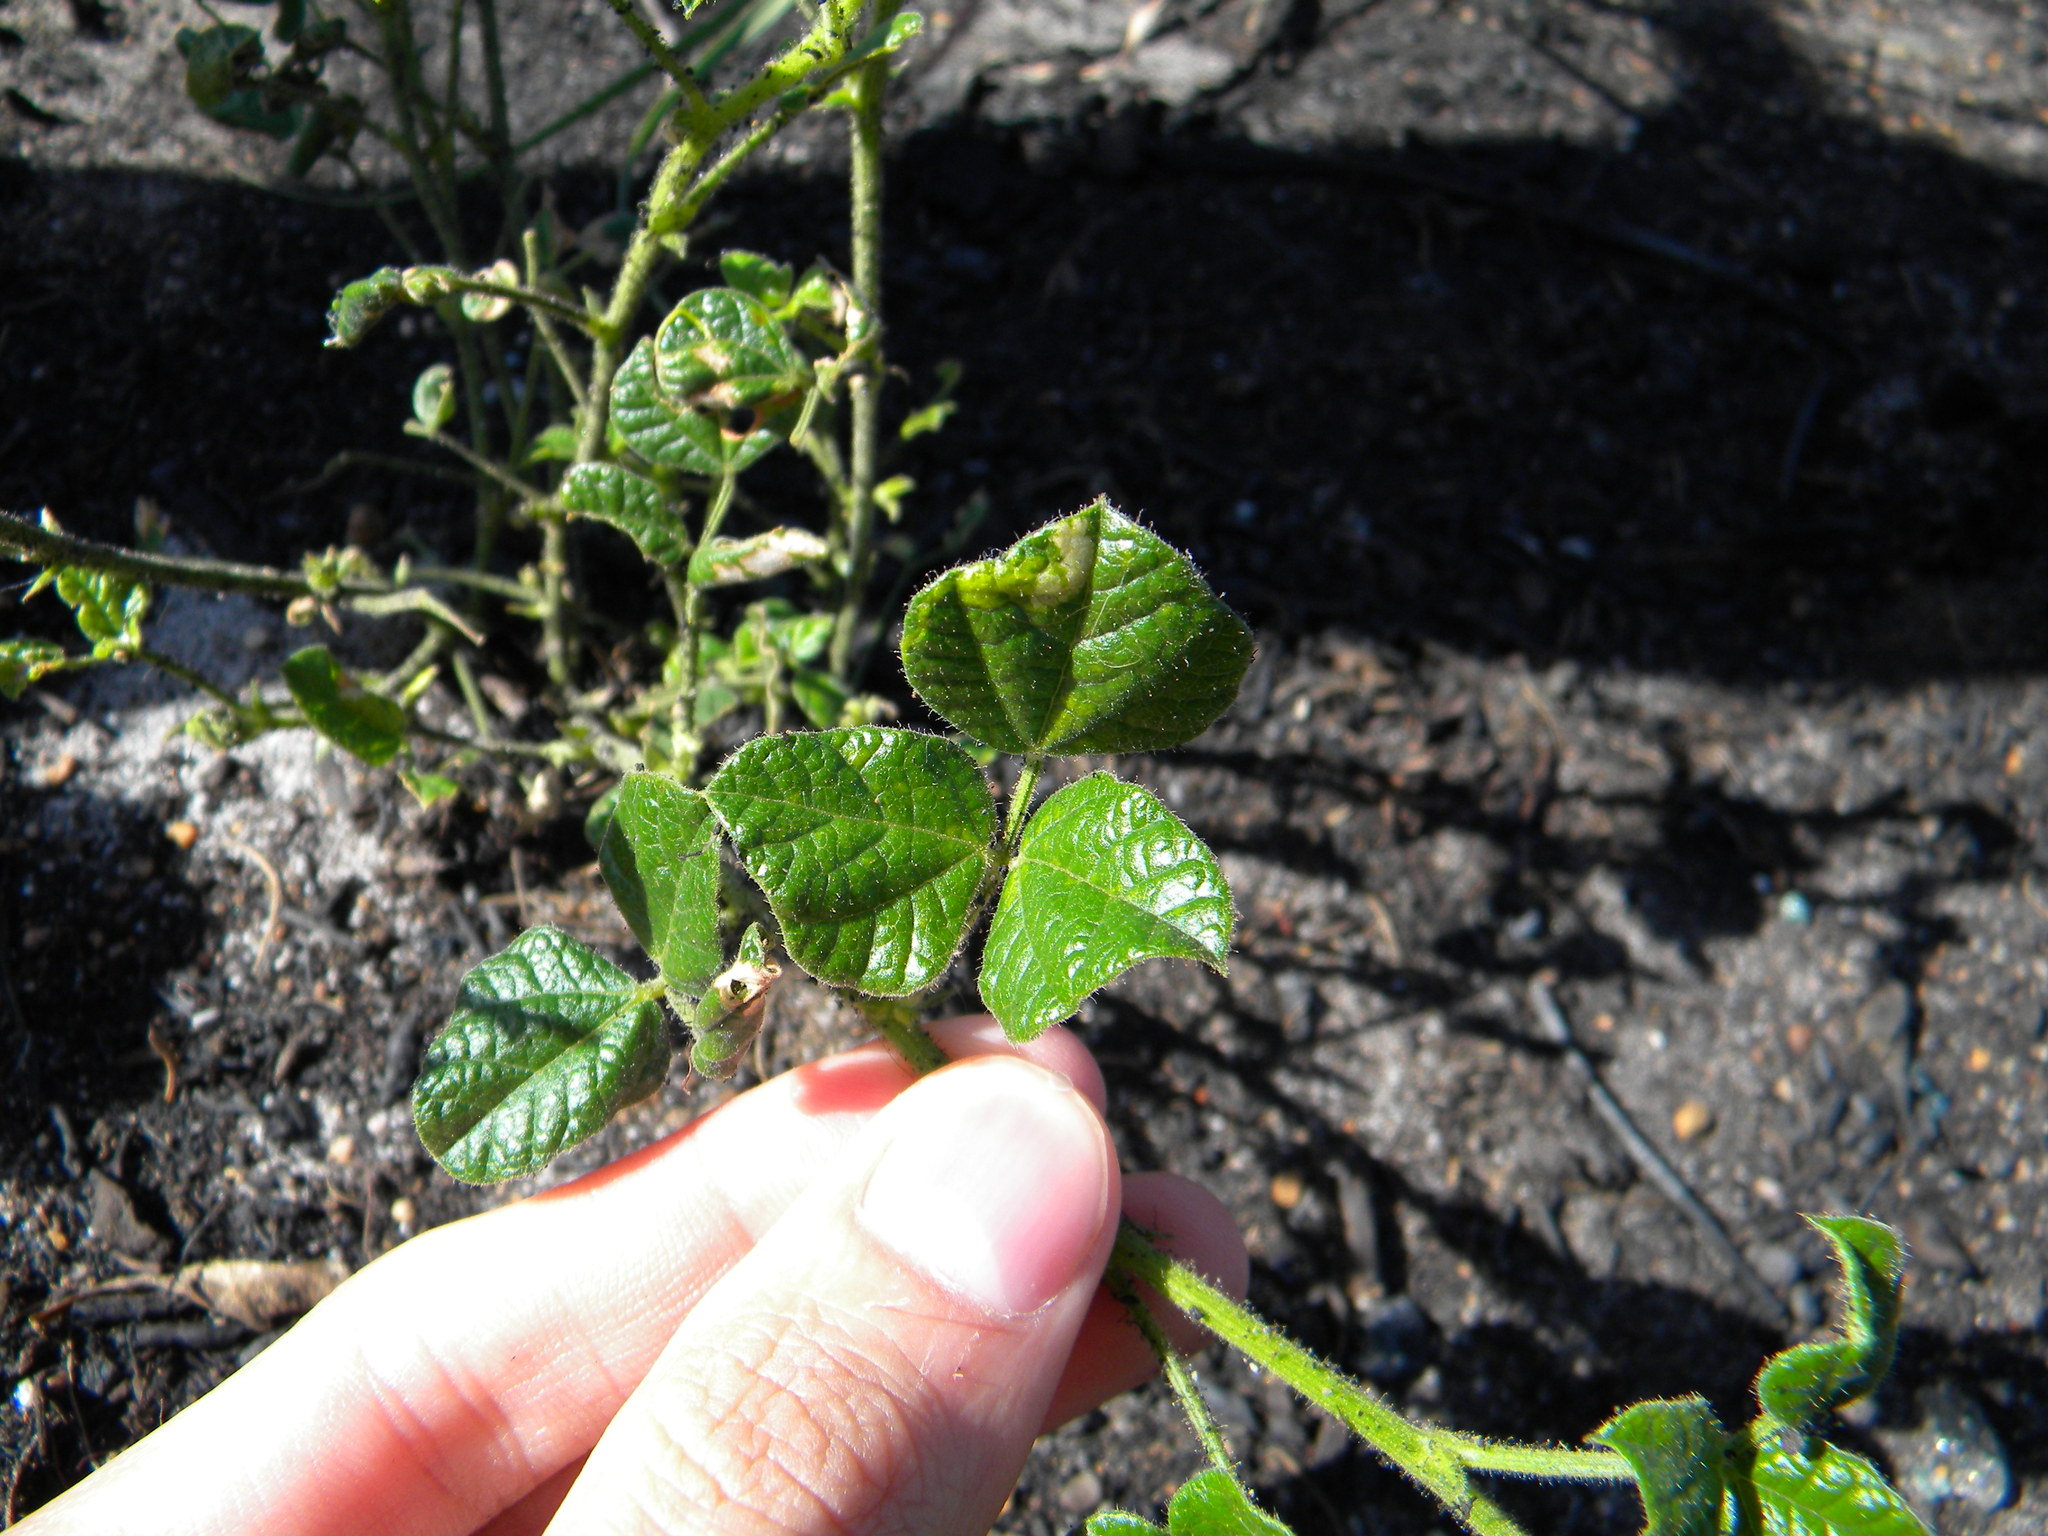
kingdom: Plantae
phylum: Tracheophyta
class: Magnoliopsida
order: Fabales
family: Fabaceae
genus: Bolusafra
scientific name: Bolusafra bituminosa
